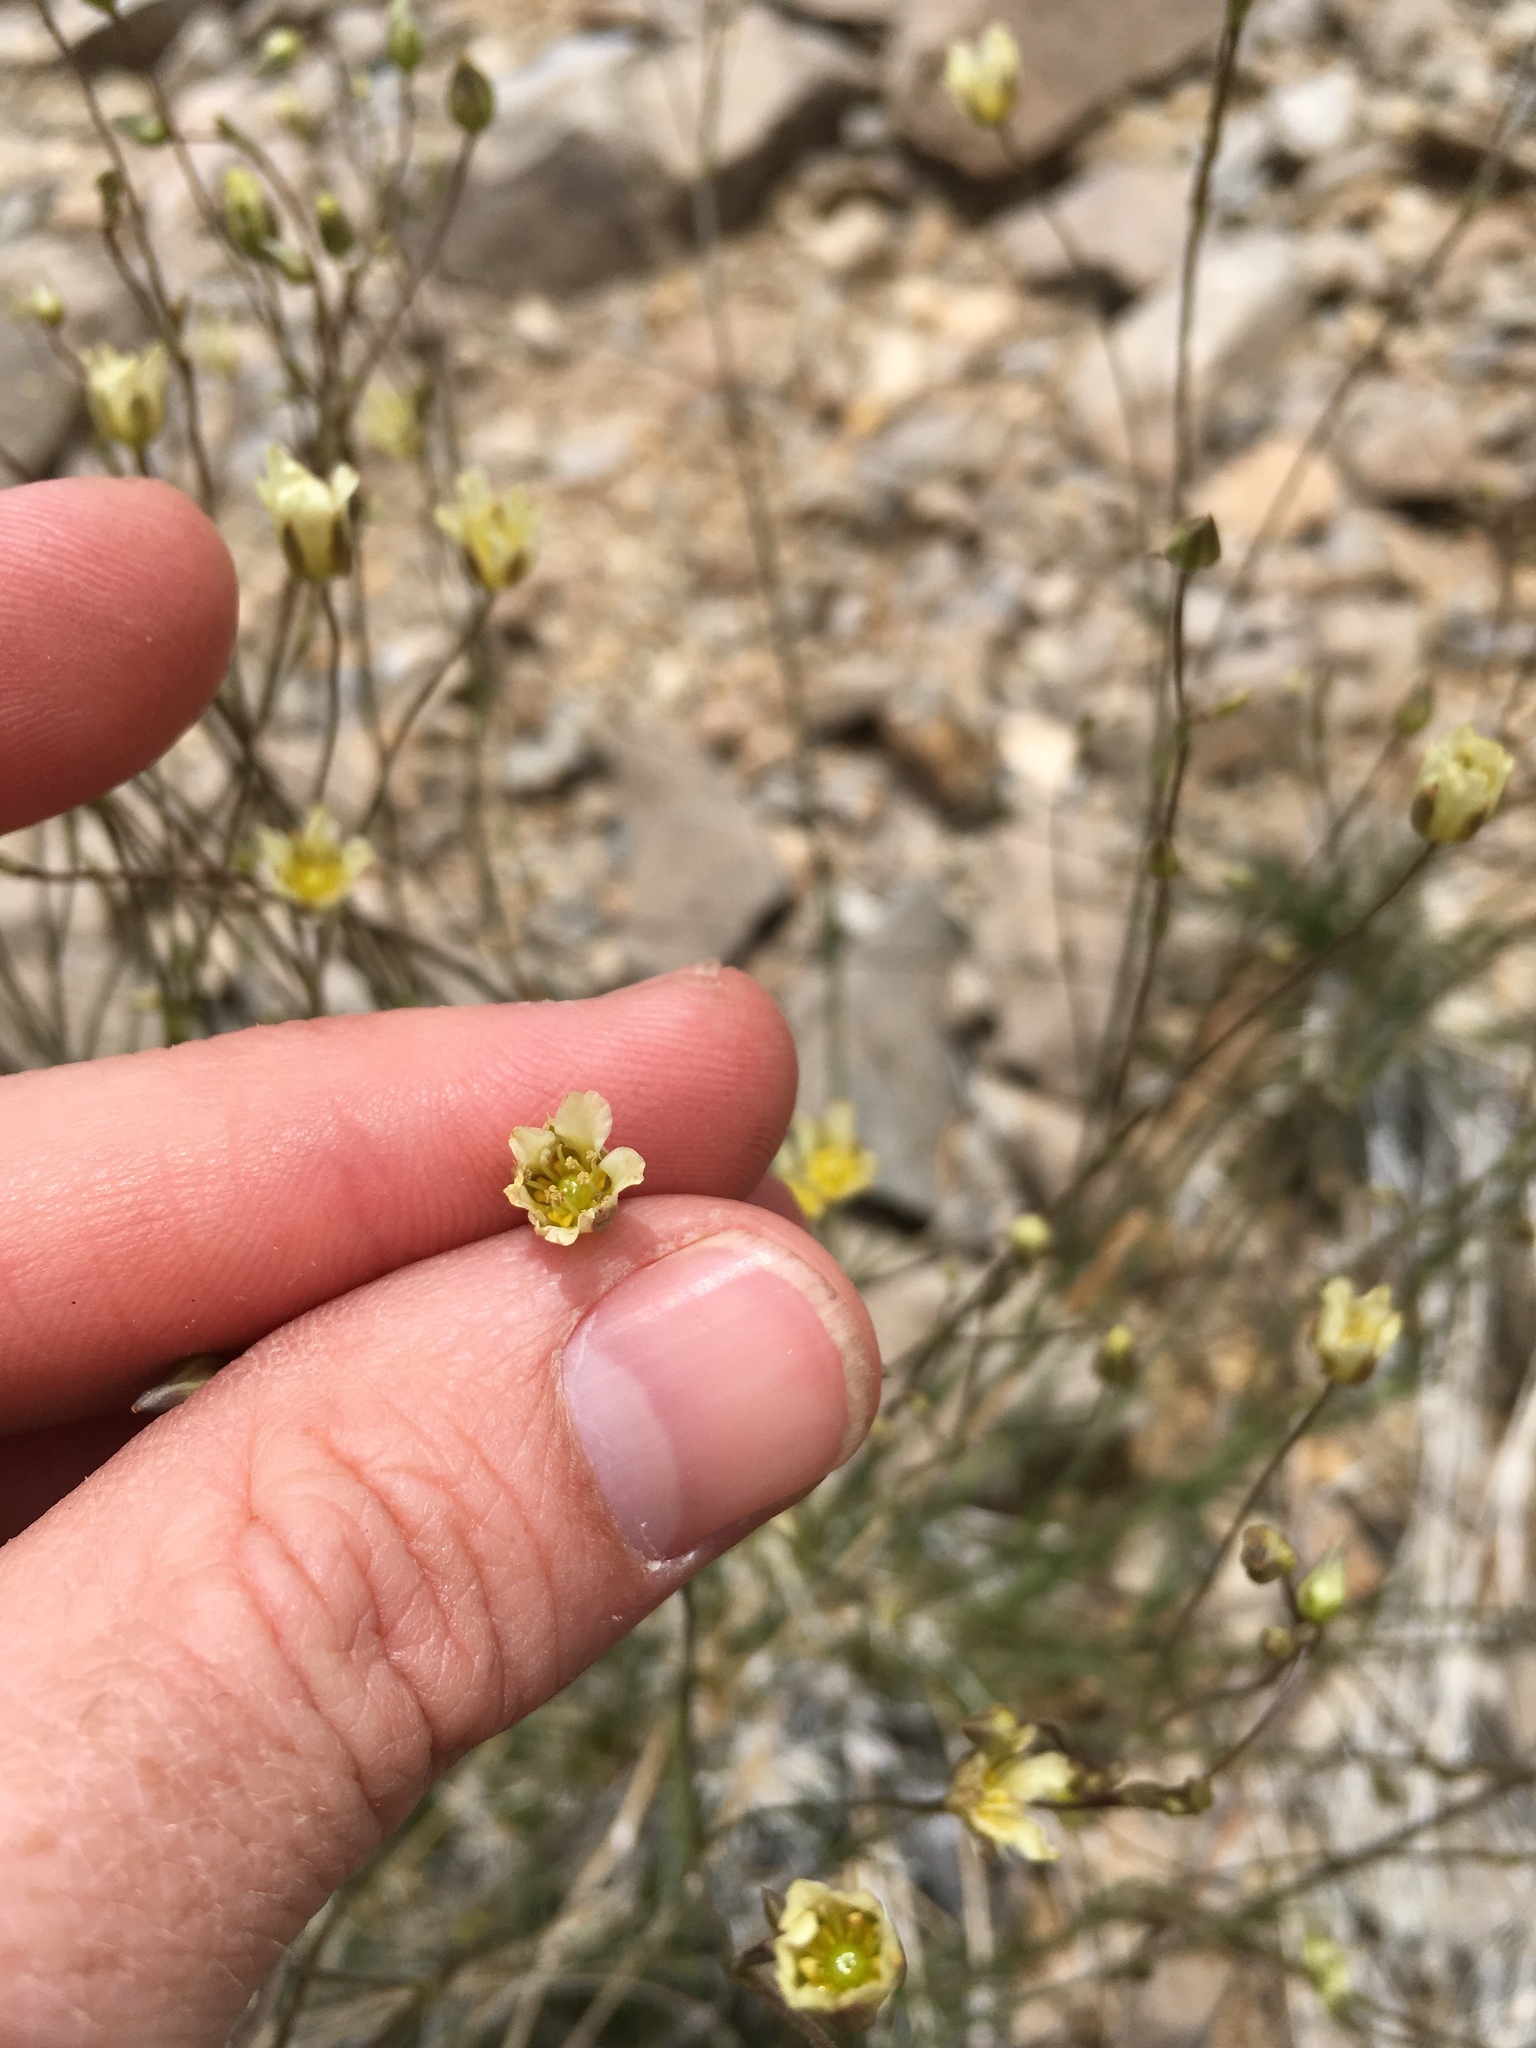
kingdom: Plantae
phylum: Tracheophyta
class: Magnoliopsida
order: Caryophyllales
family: Caryophyllaceae
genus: Eremogone
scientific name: Eremogone macradenia
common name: Mohave sandwort
